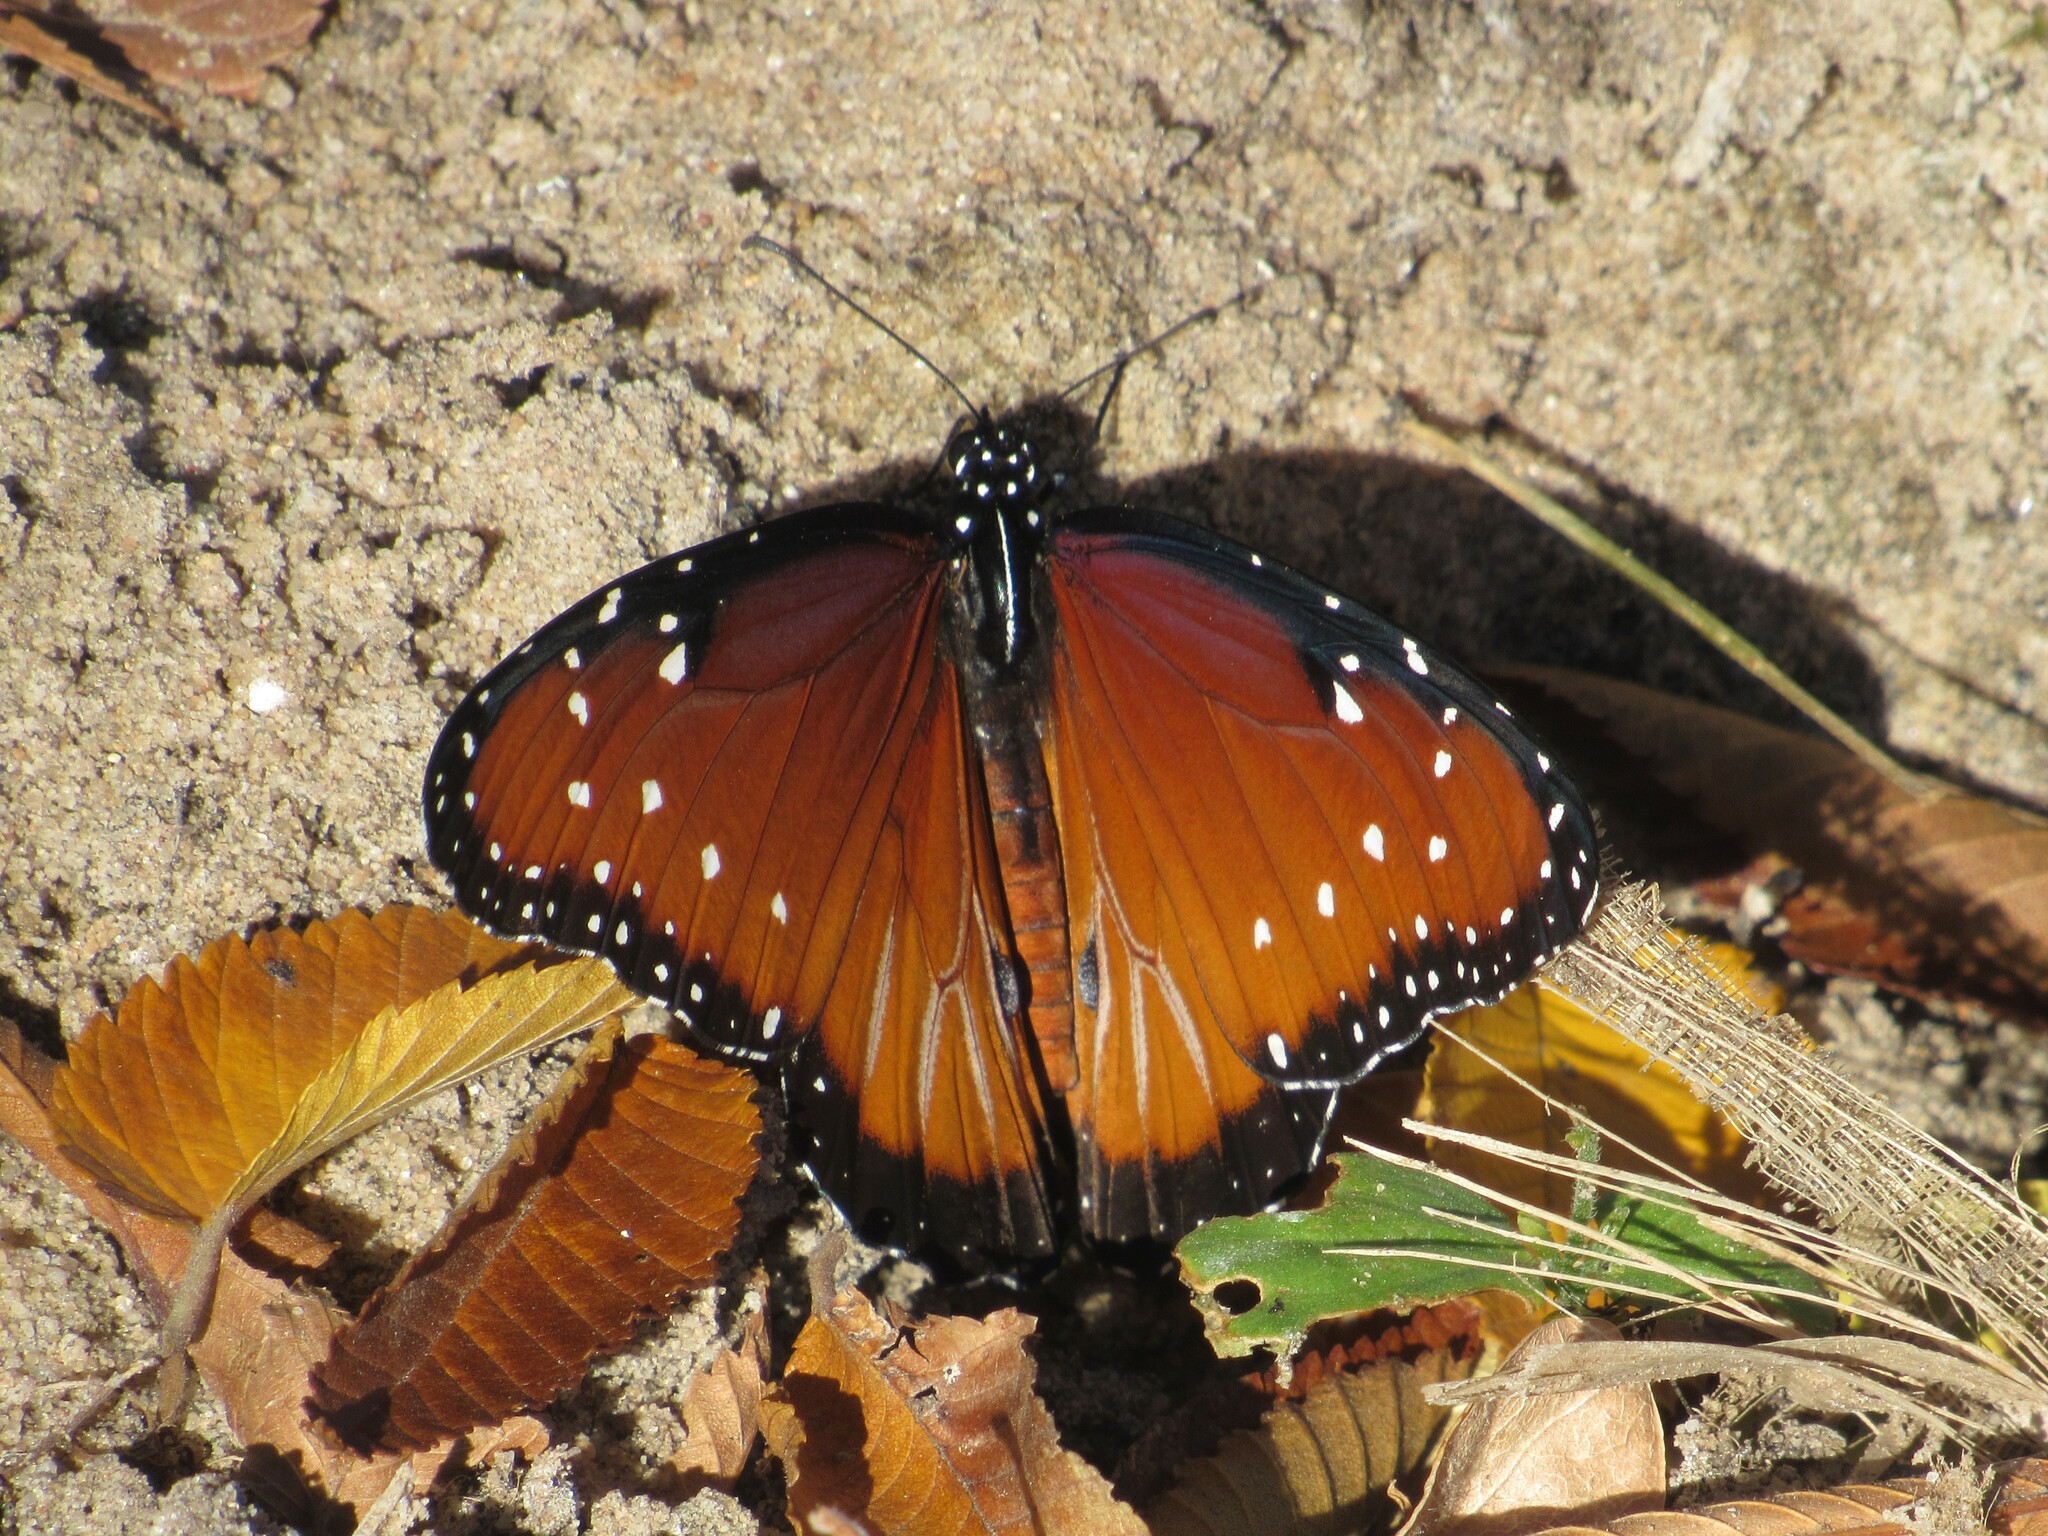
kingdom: Animalia
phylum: Arthropoda
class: Insecta
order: Lepidoptera
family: Nymphalidae
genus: Danaus
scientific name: Danaus gilippus
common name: Queen
